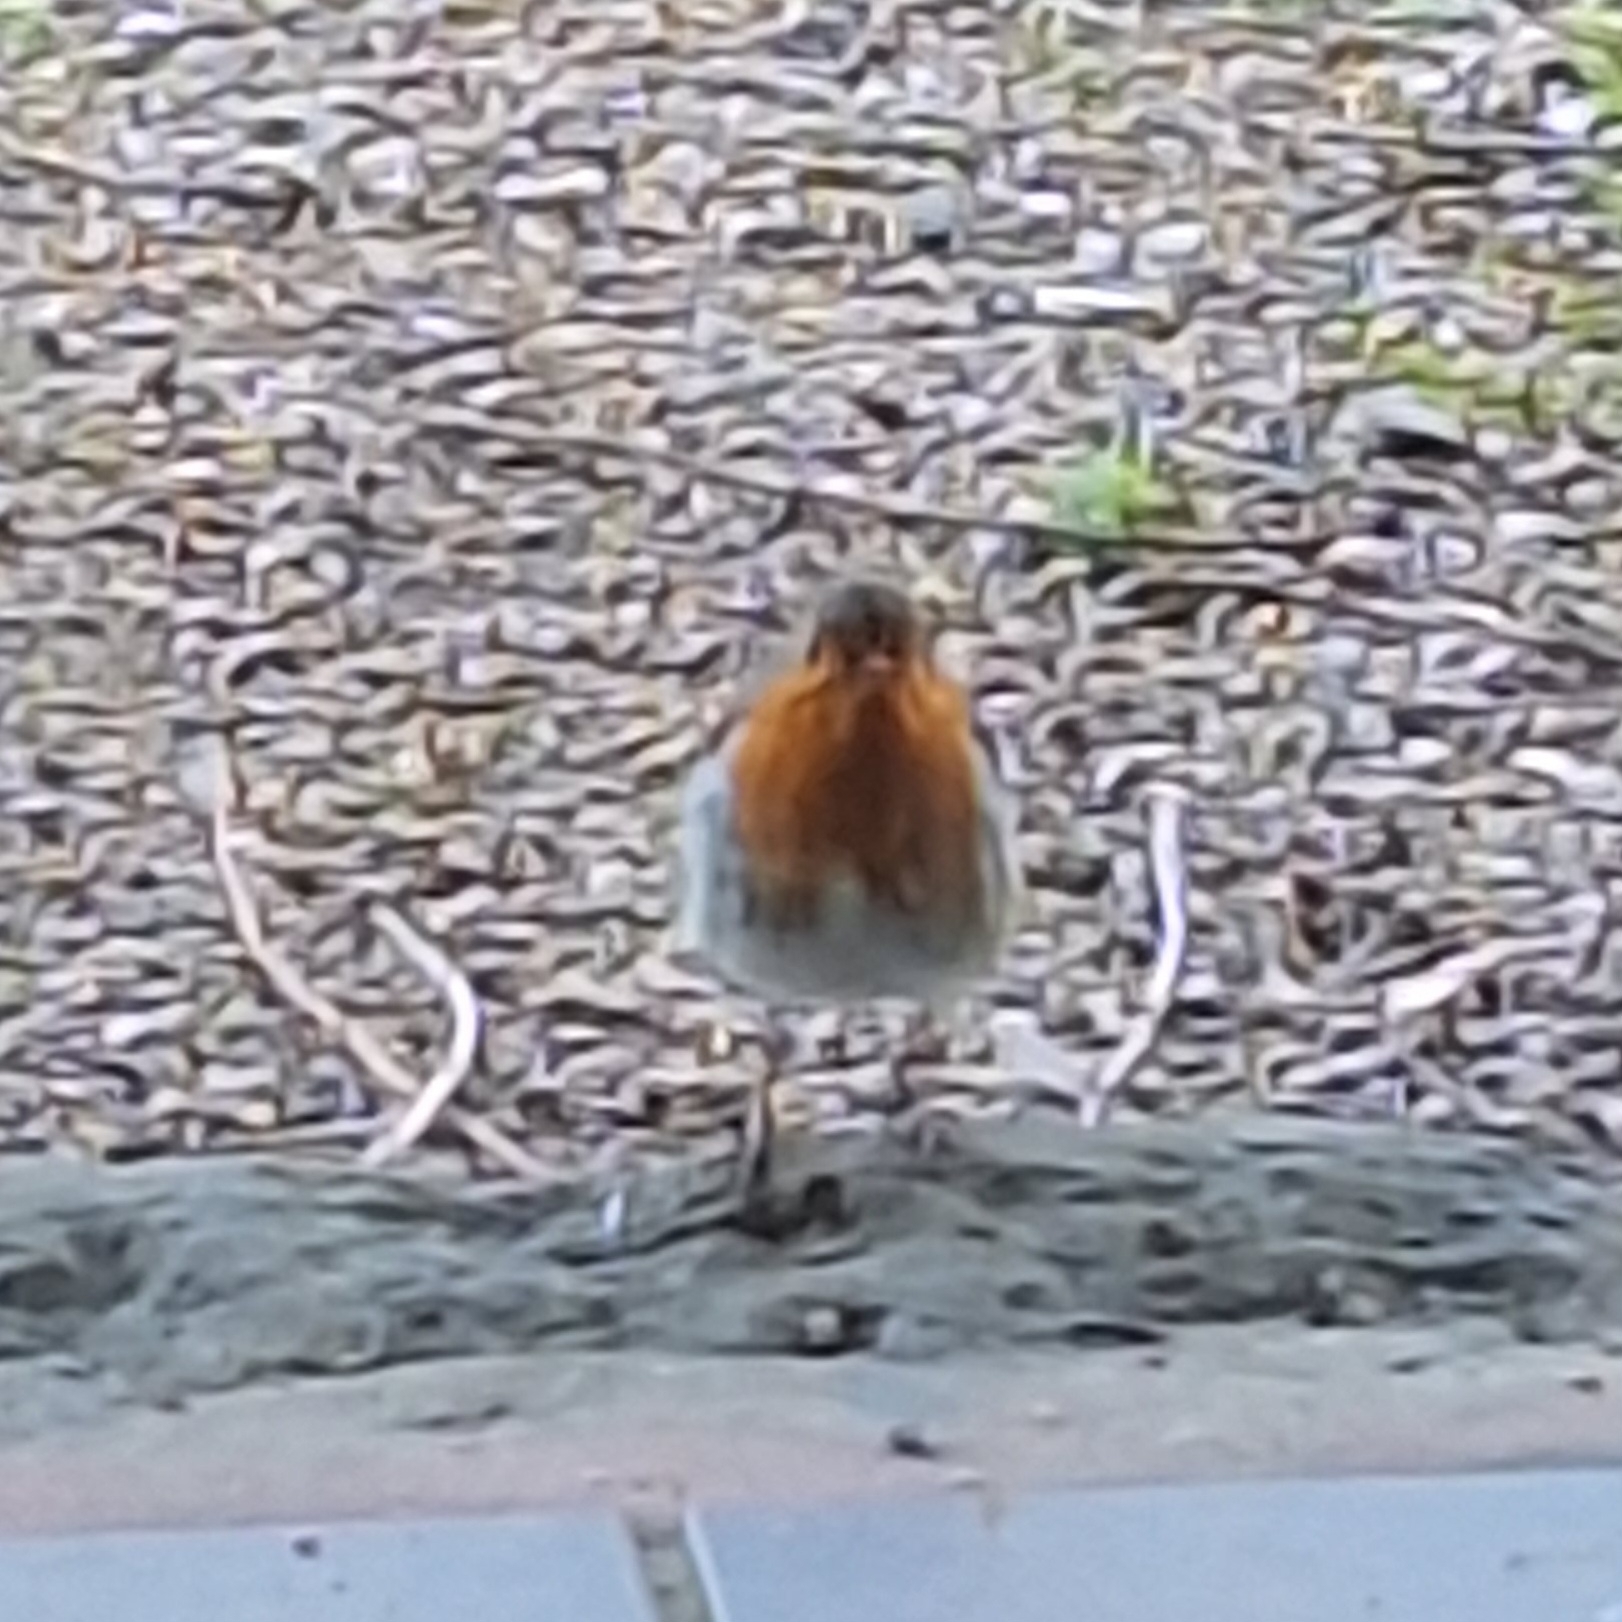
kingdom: Animalia
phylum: Chordata
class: Aves
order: Passeriformes
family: Muscicapidae
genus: Erithacus
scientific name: Erithacus rubecula
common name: European robin
